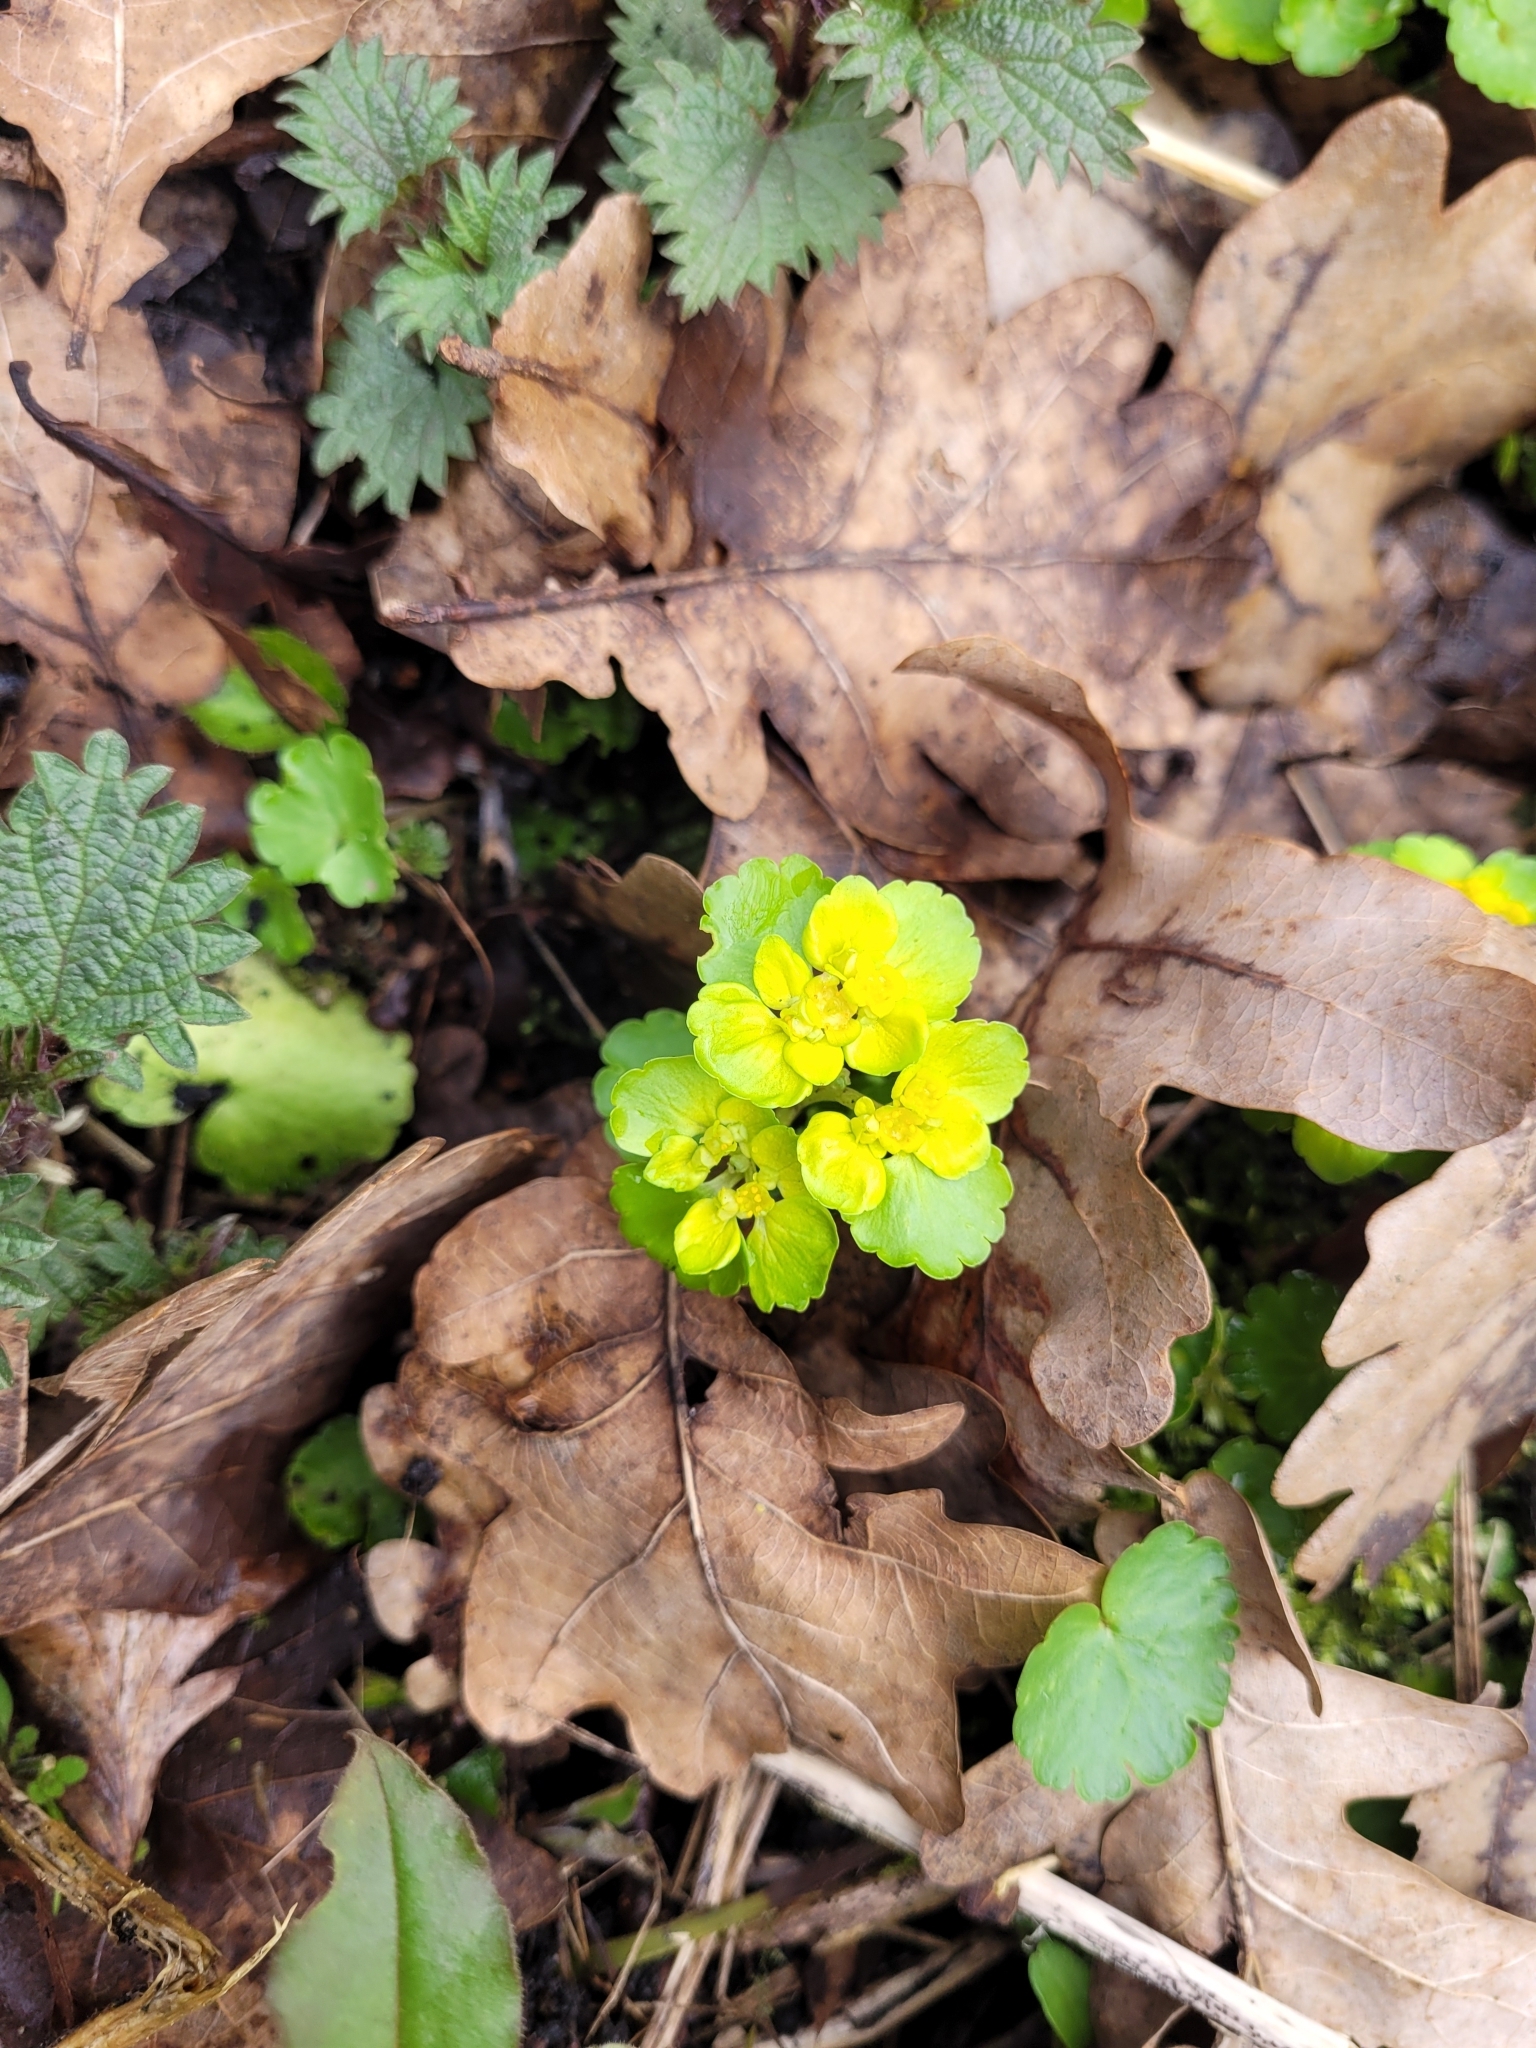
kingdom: Plantae
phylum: Tracheophyta
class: Magnoliopsida
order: Saxifragales
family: Saxifragaceae
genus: Chrysosplenium
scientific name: Chrysosplenium alternifolium
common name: Alternate-leaved golden-saxifrage
